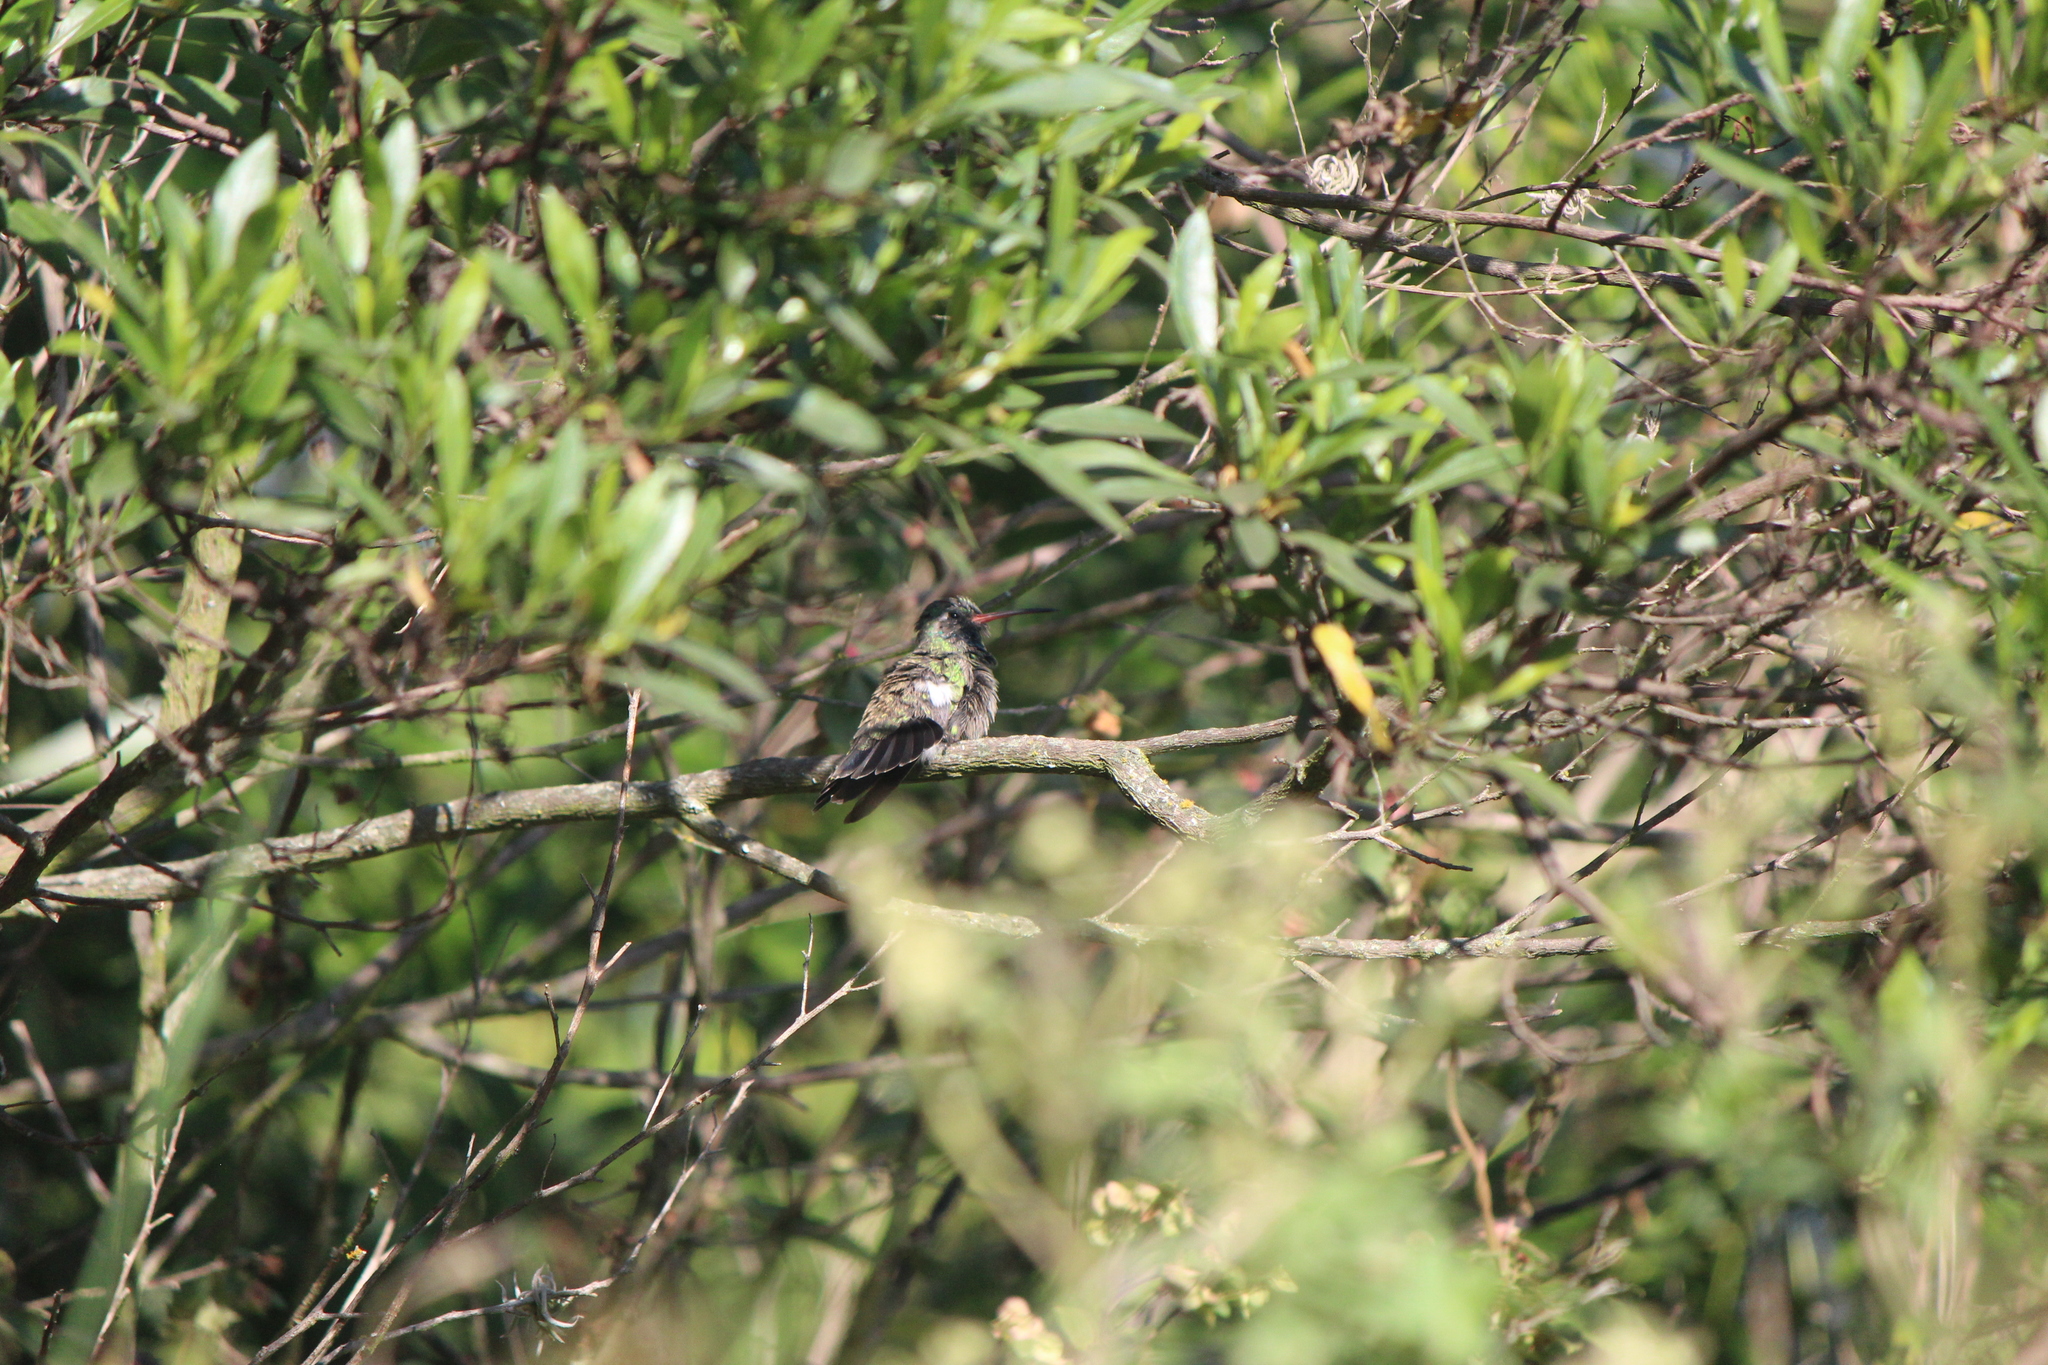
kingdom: Animalia
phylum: Chordata
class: Aves
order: Apodiformes
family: Trochilidae
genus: Cynanthus
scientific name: Cynanthus latirostris
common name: Broad-billed hummingbird
